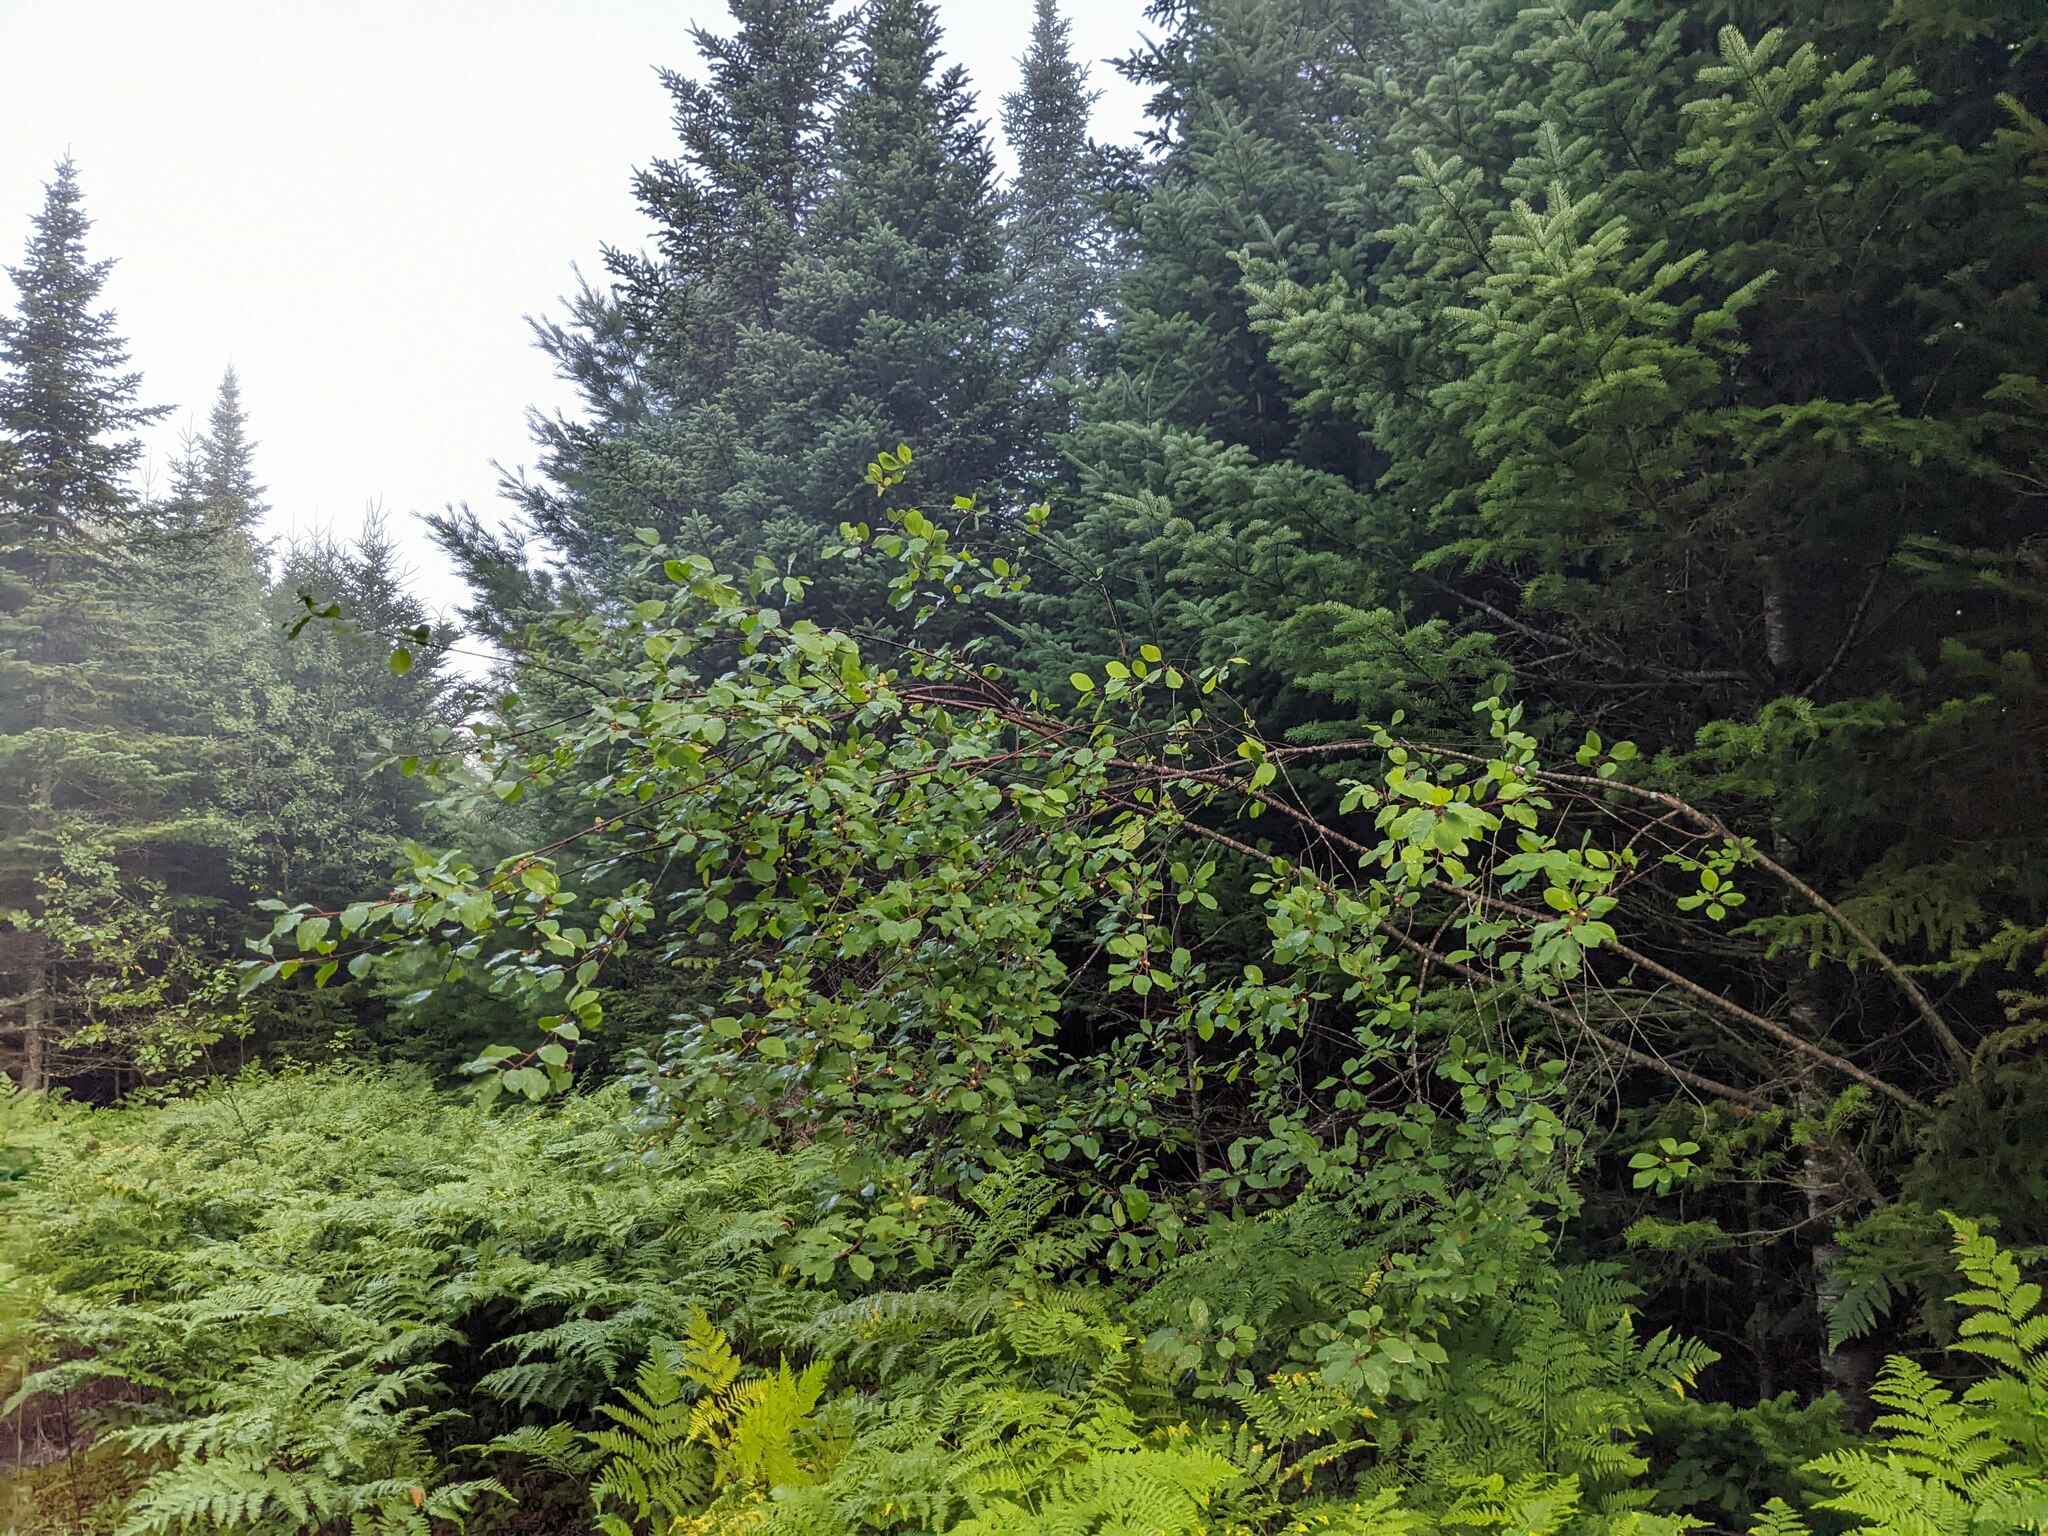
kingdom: Plantae
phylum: Tracheophyta
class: Magnoliopsida
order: Rosales
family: Rhamnaceae
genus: Frangula
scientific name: Frangula alnus
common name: Alder buckthorn
